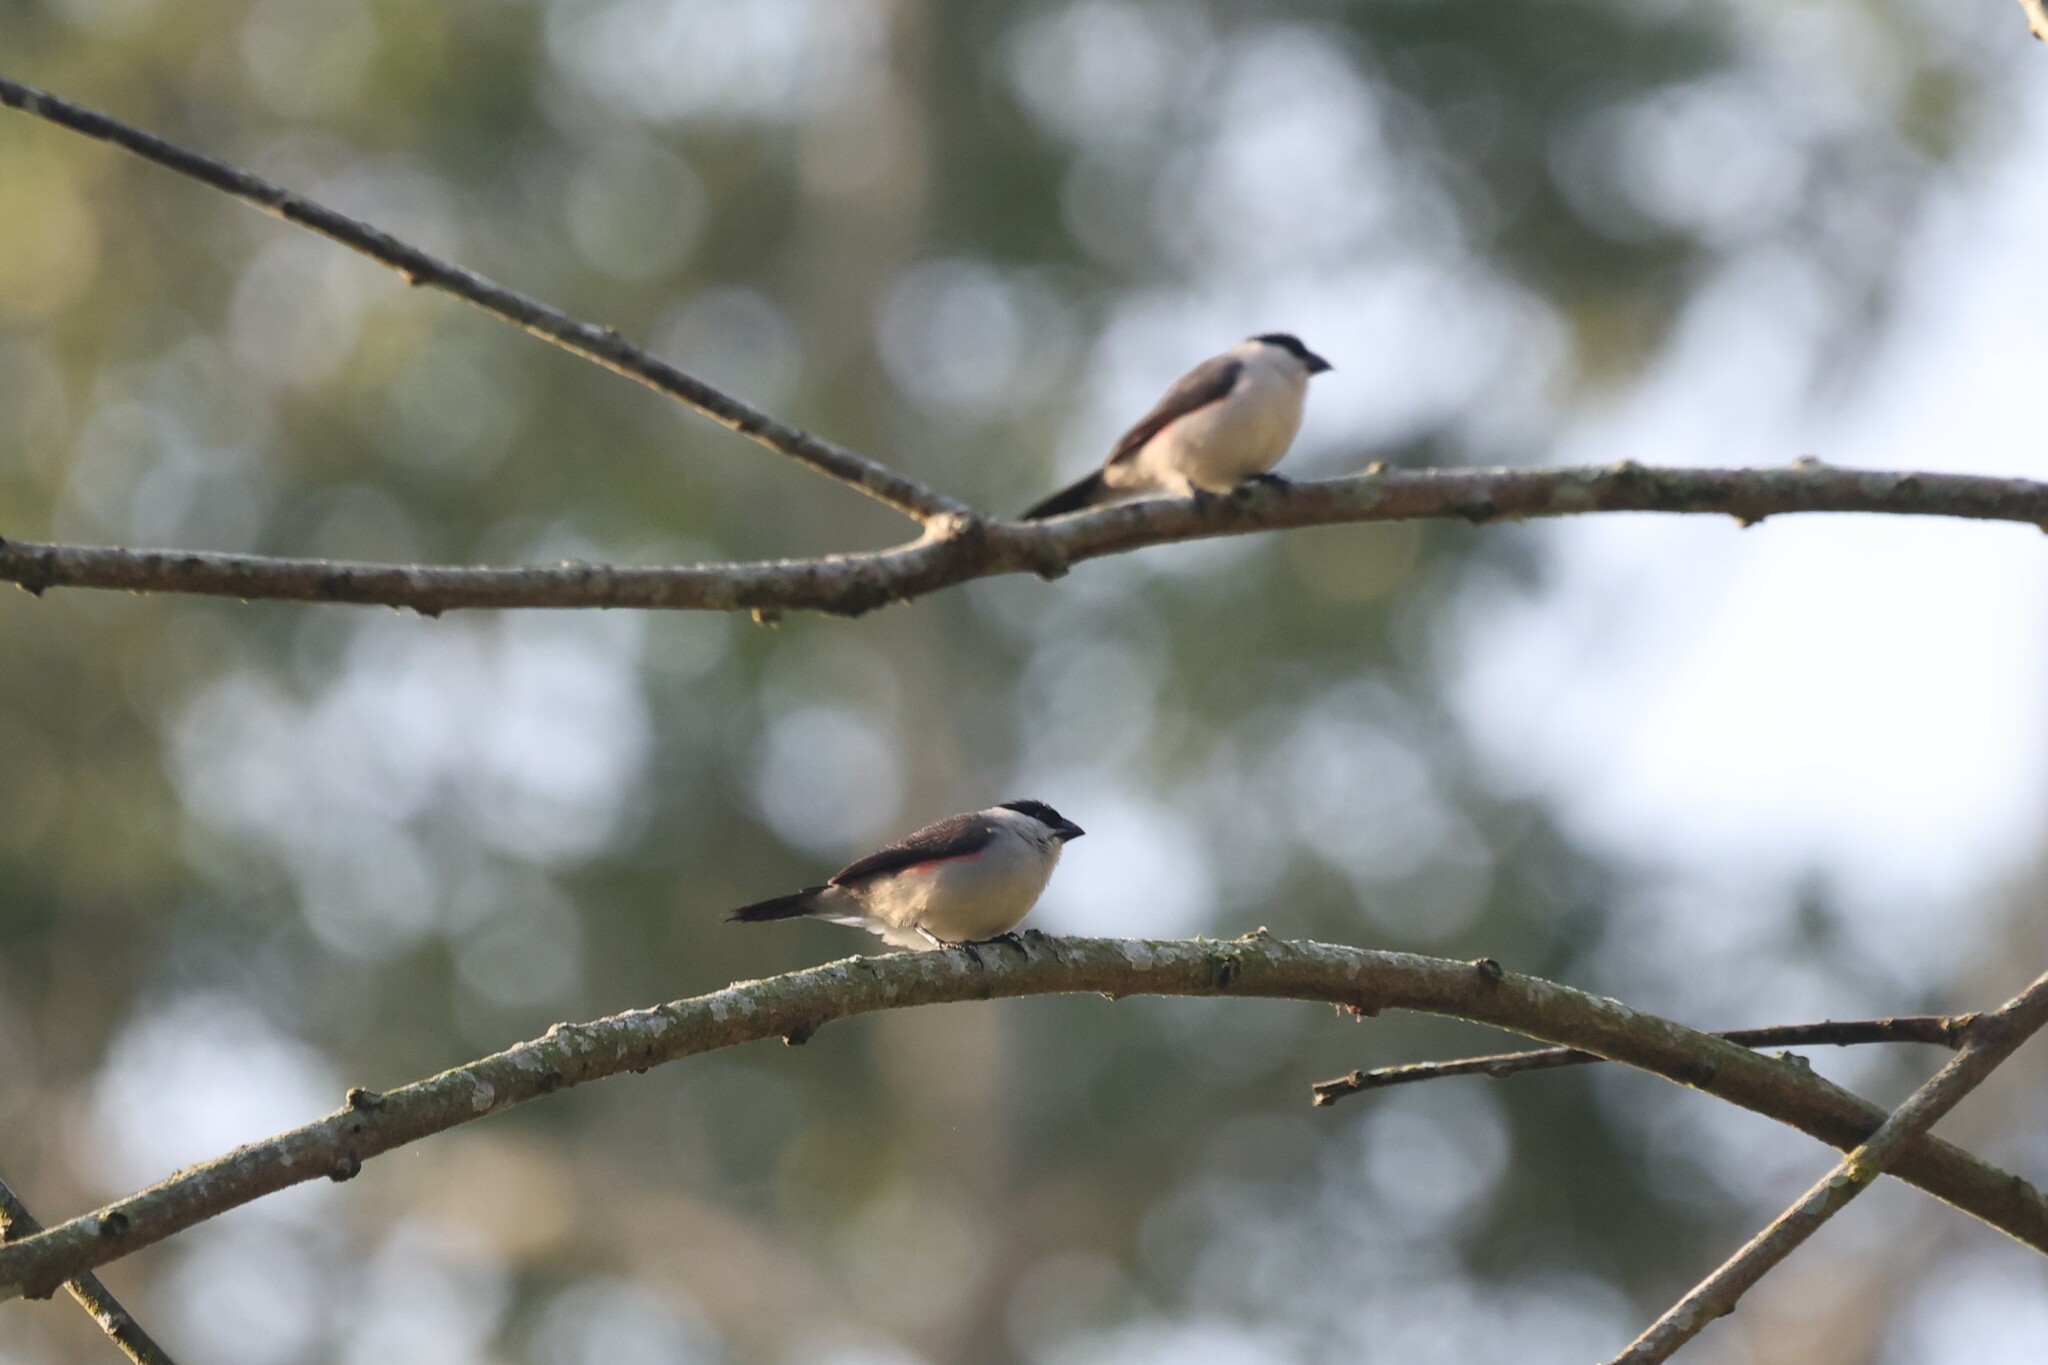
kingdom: Animalia
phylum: Chordata
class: Aves
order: Passeriformes
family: Estrildidae
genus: Estrilda
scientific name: Estrilda nonnula
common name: Black-crowned waxbill
